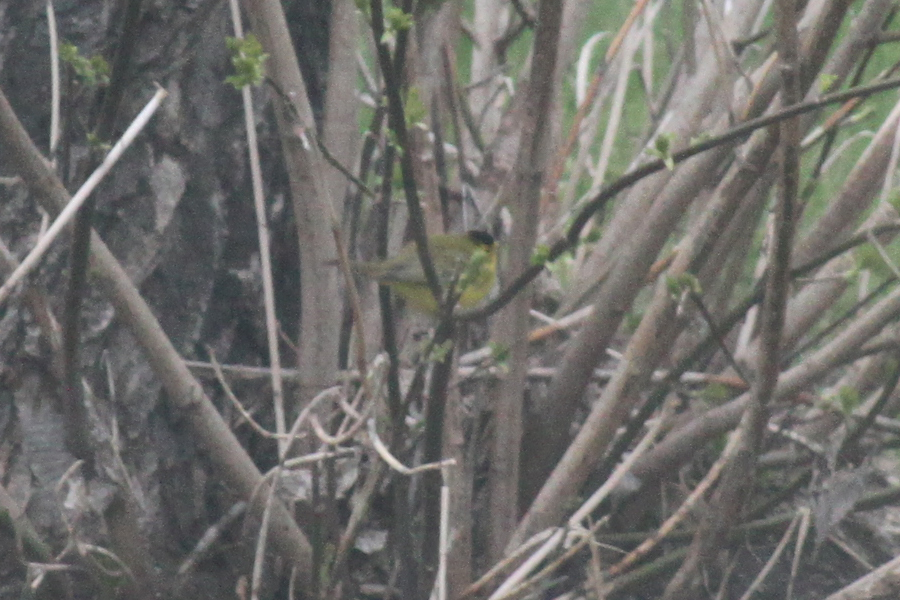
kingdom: Animalia
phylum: Chordata
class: Aves
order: Passeriformes
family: Parulidae
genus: Cardellina
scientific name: Cardellina pusilla
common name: Wilson's warbler
